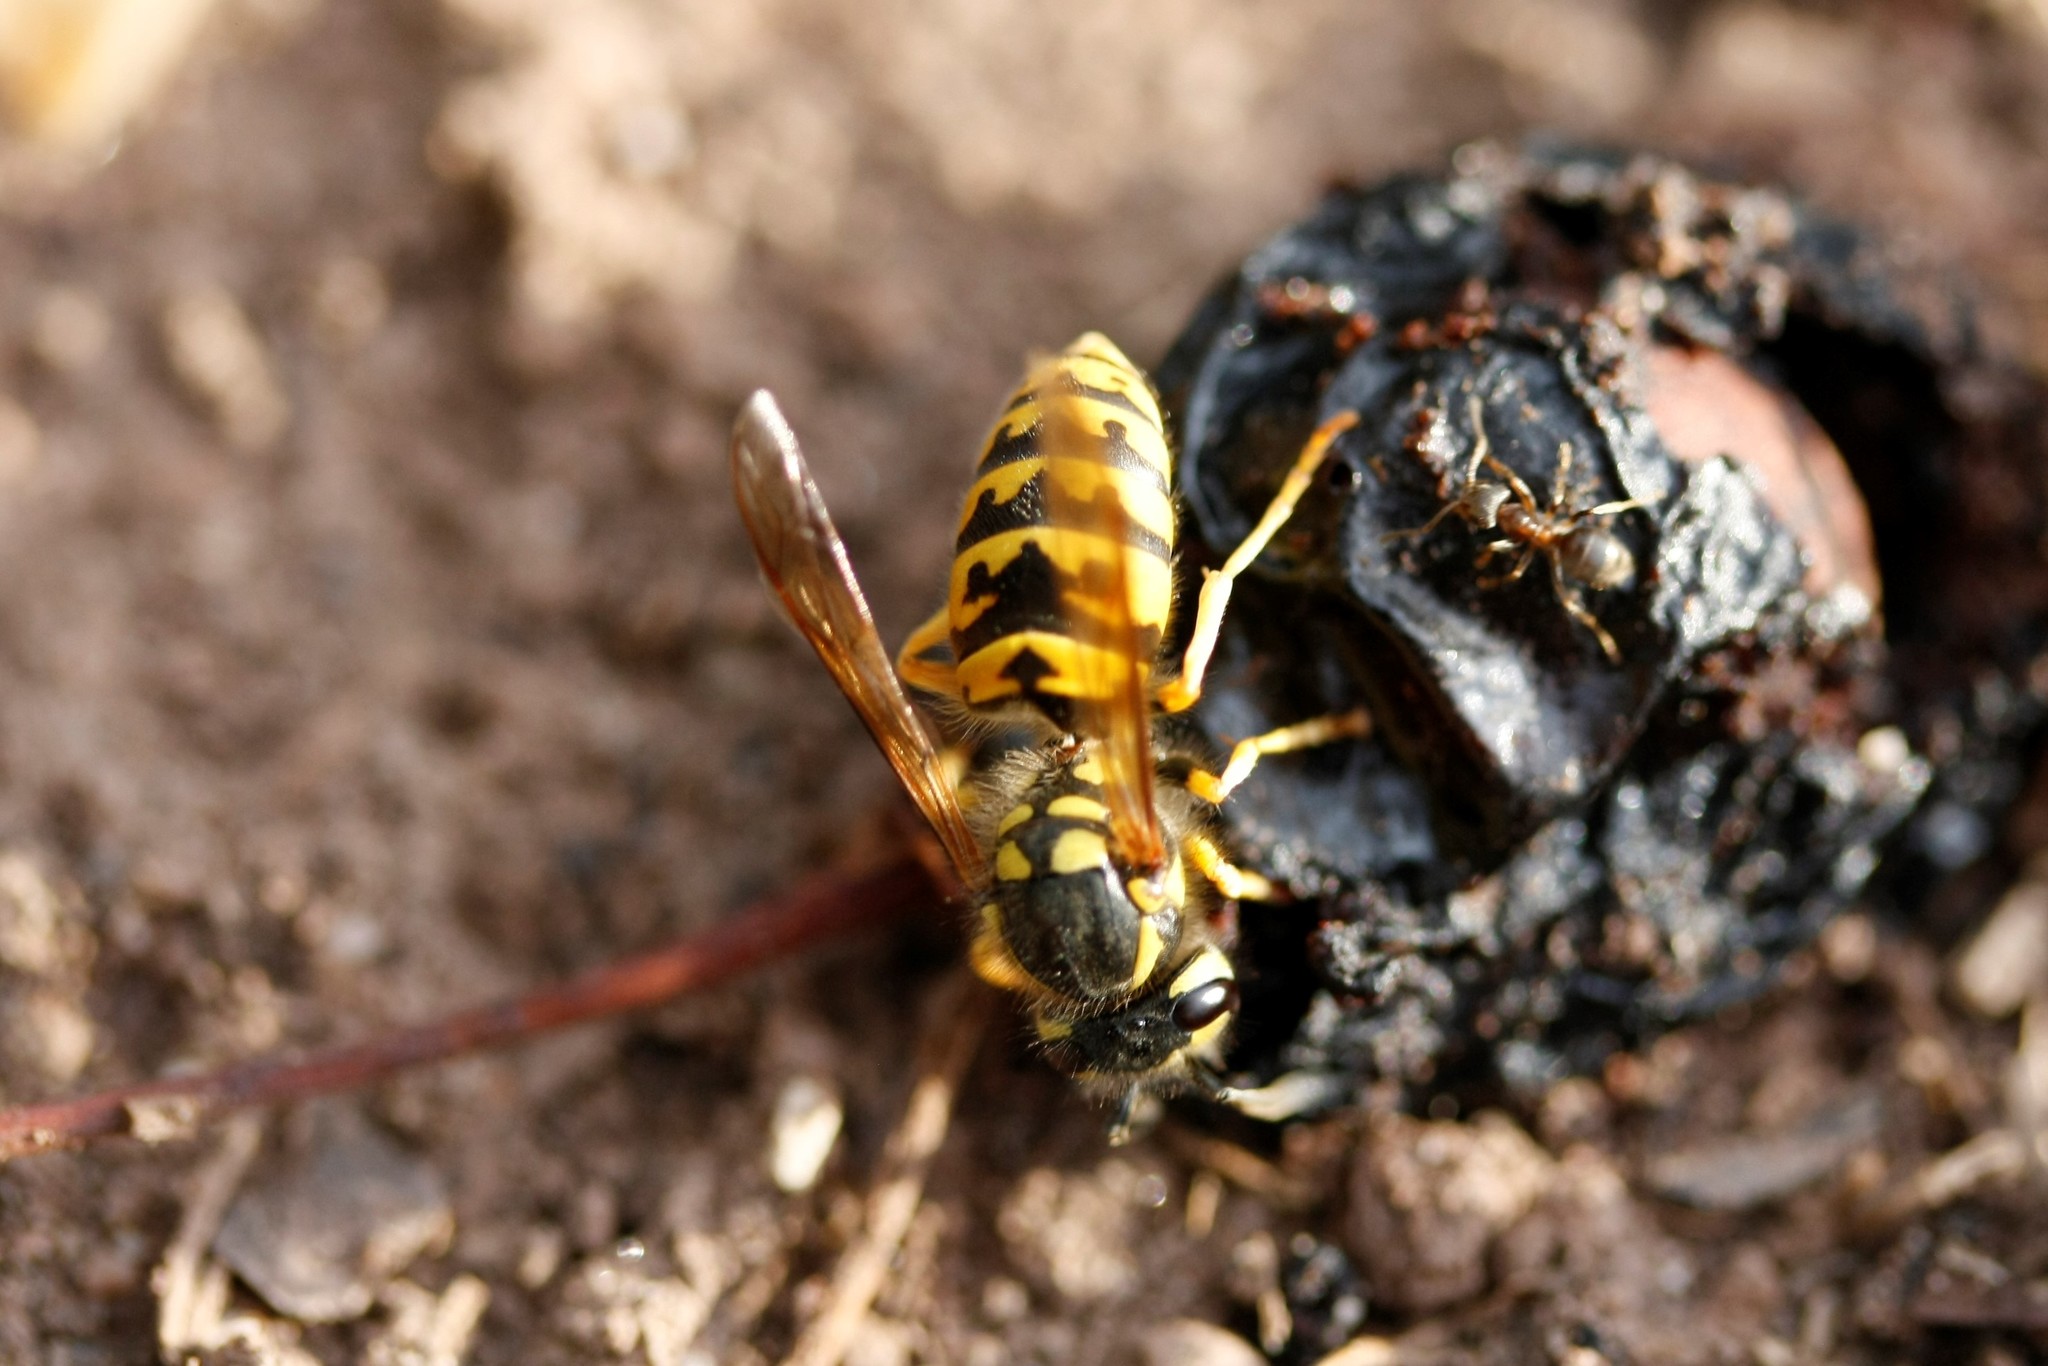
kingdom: Animalia
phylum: Arthropoda
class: Insecta
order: Hymenoptera
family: Vespidae
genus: Vespula
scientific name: Vespula germanica
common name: German wasp
